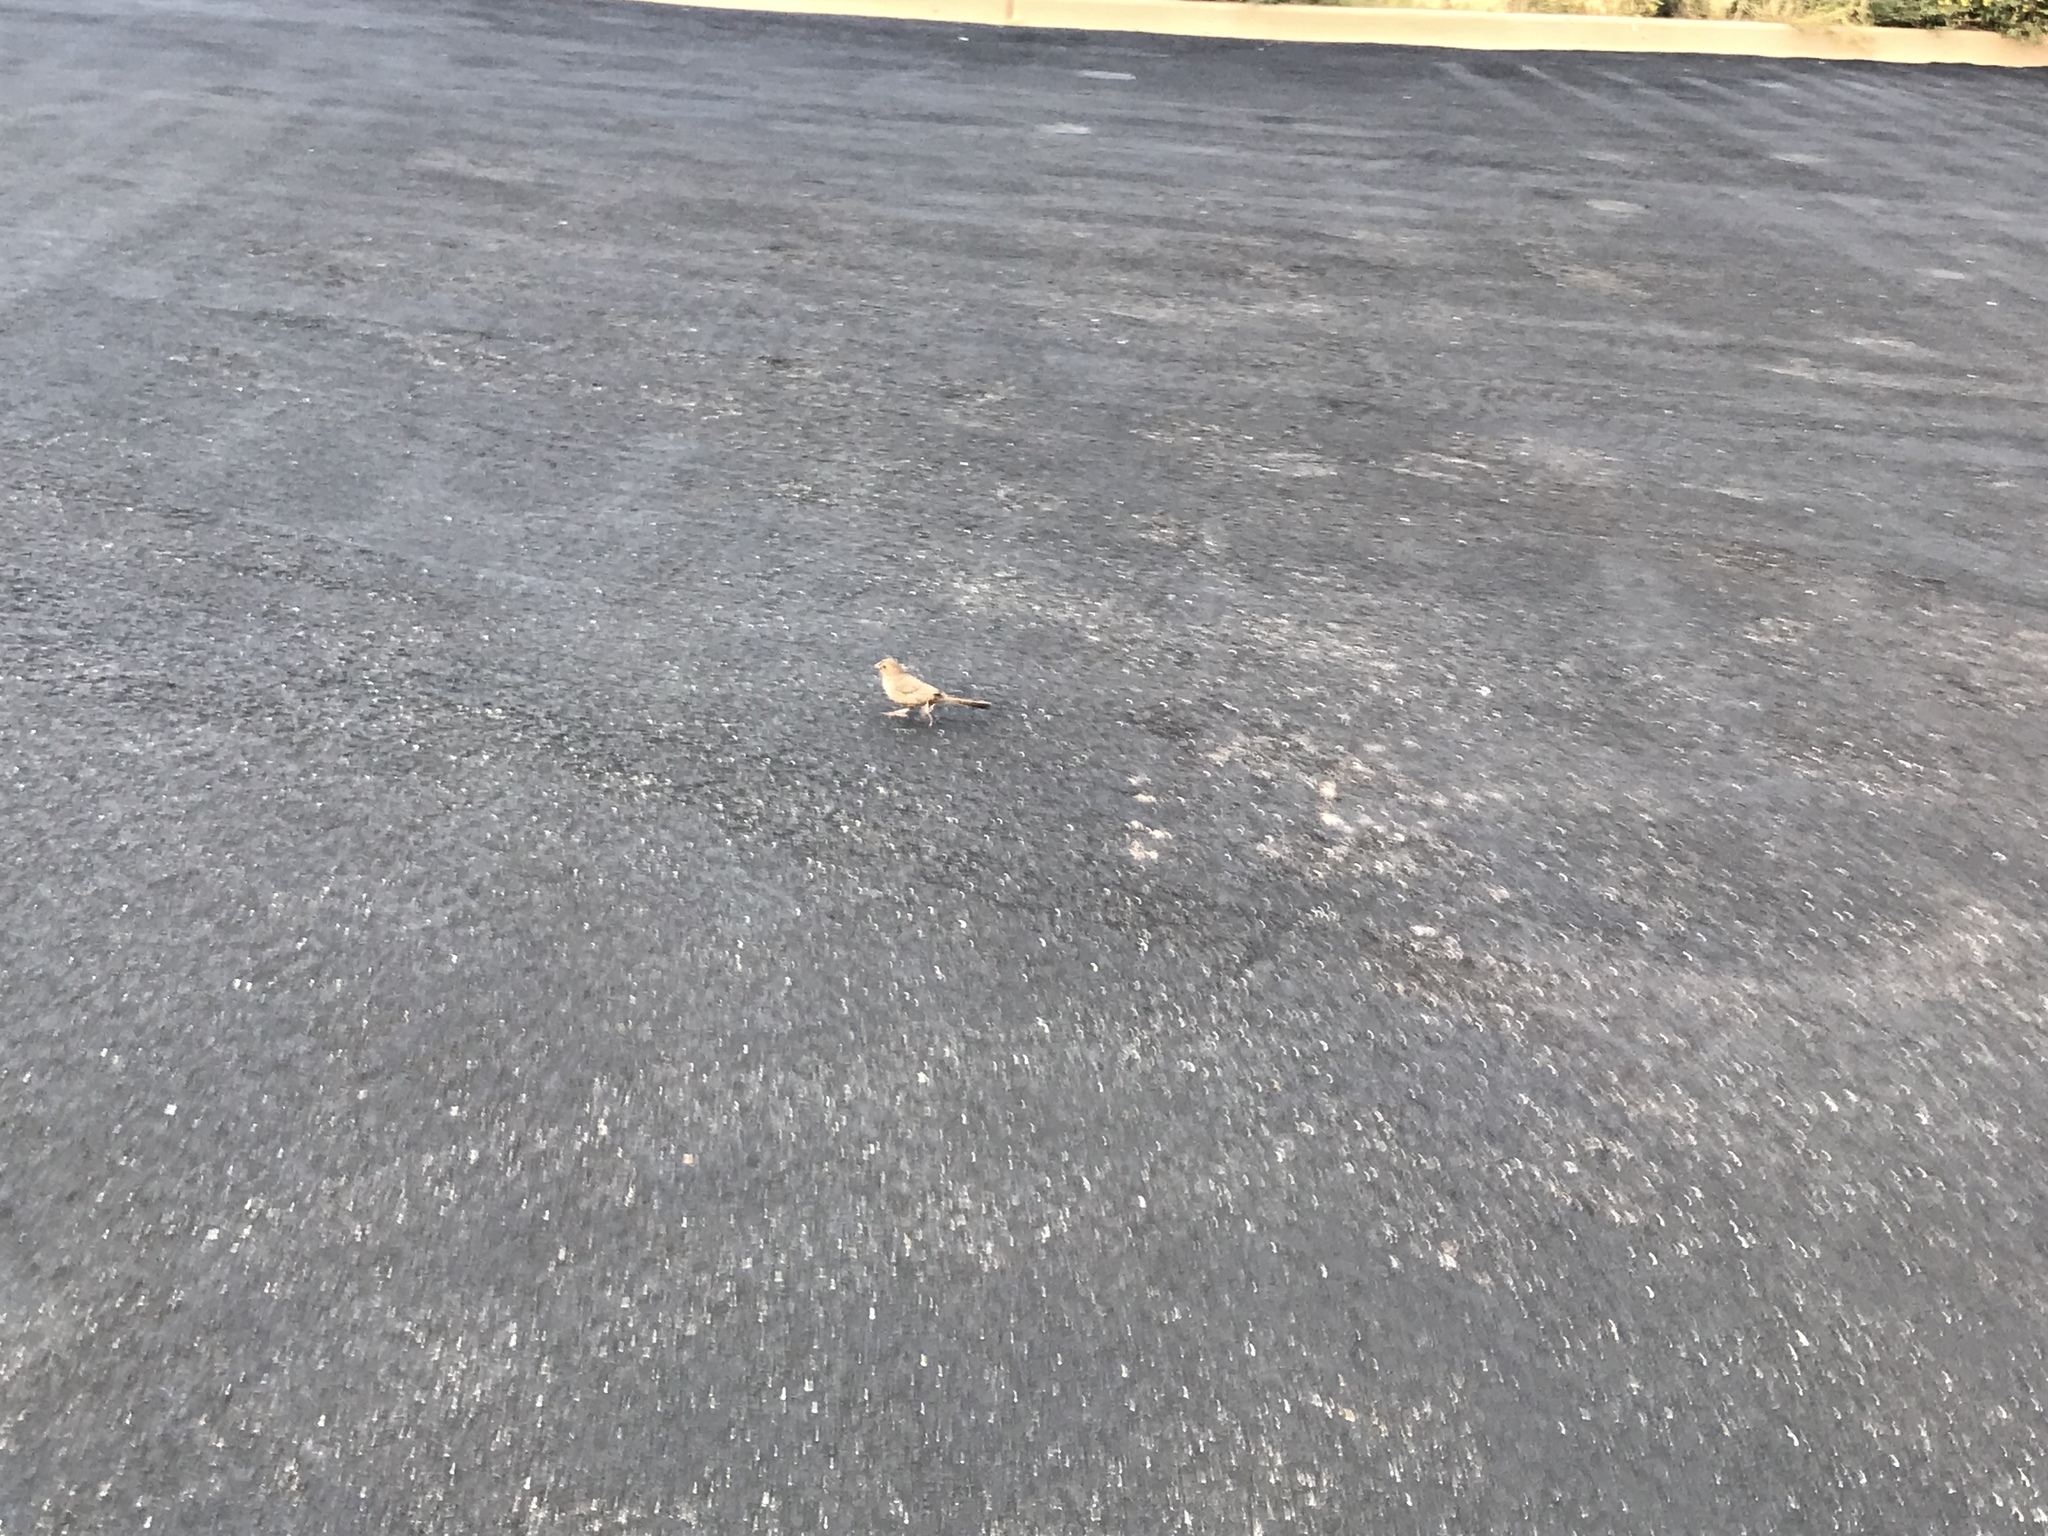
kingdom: Animalia
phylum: Chordata
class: Aves
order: Passeriformes
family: Passerellidae
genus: Melozone
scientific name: Melozone crissalis
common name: California towhee
